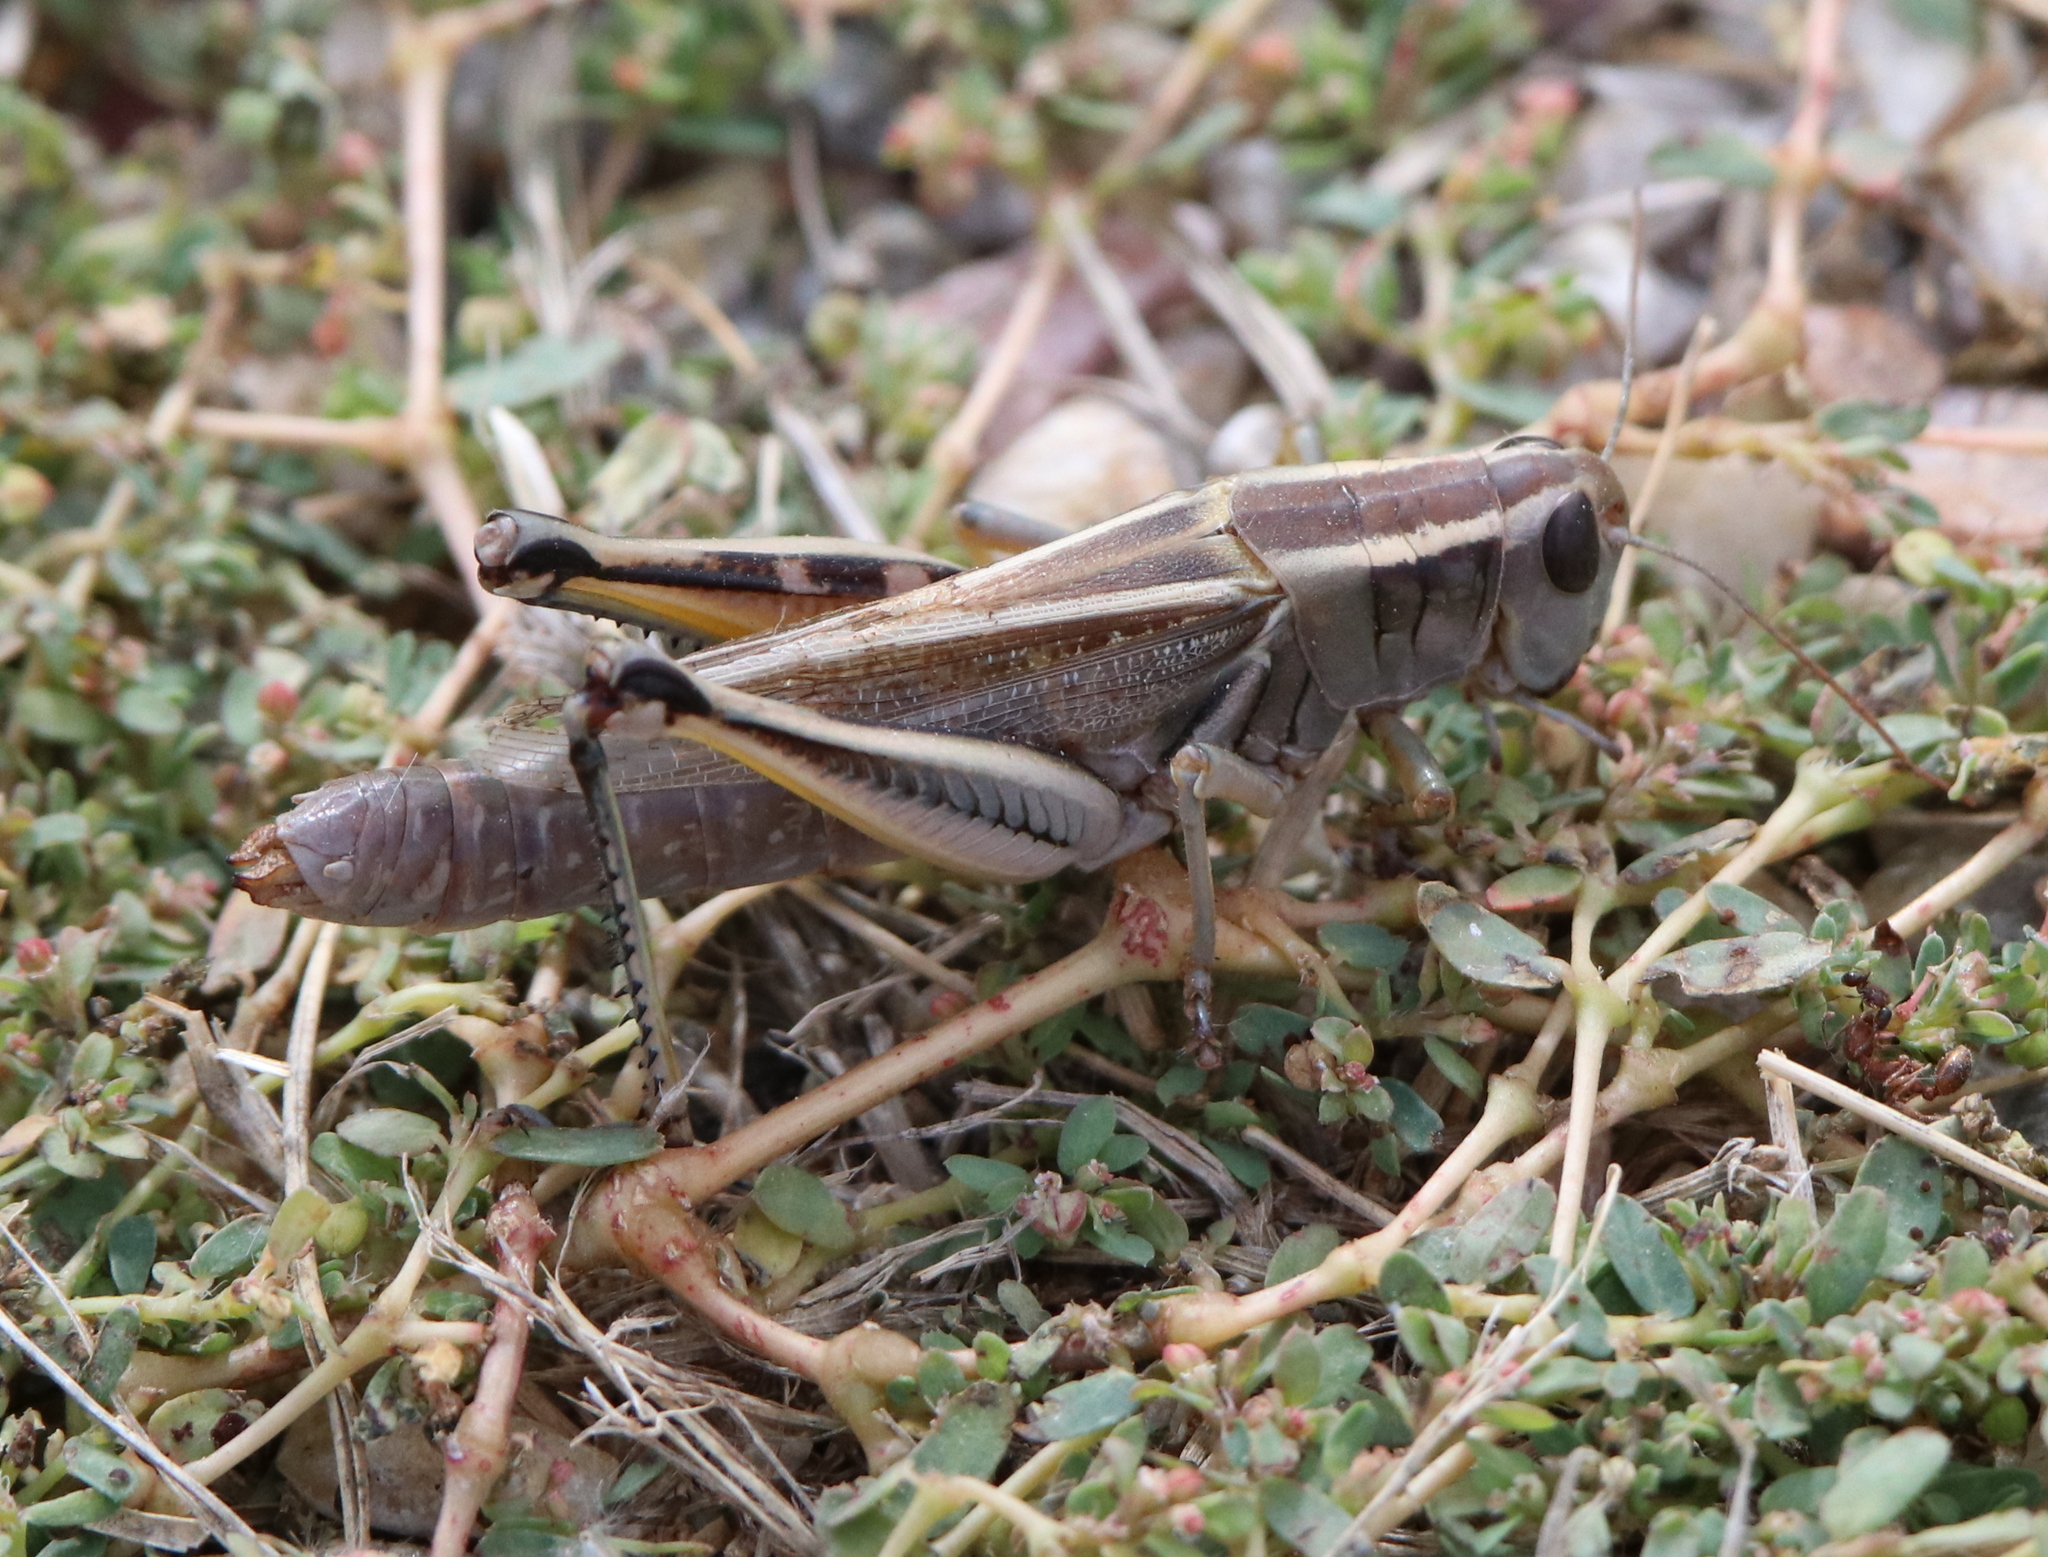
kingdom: Animalia
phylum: Arthropoda
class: Insecta
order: Orthoptera
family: Acrididae
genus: Melanoplus
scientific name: Melanoplus bivittatus
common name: Two-striped grasshopper
